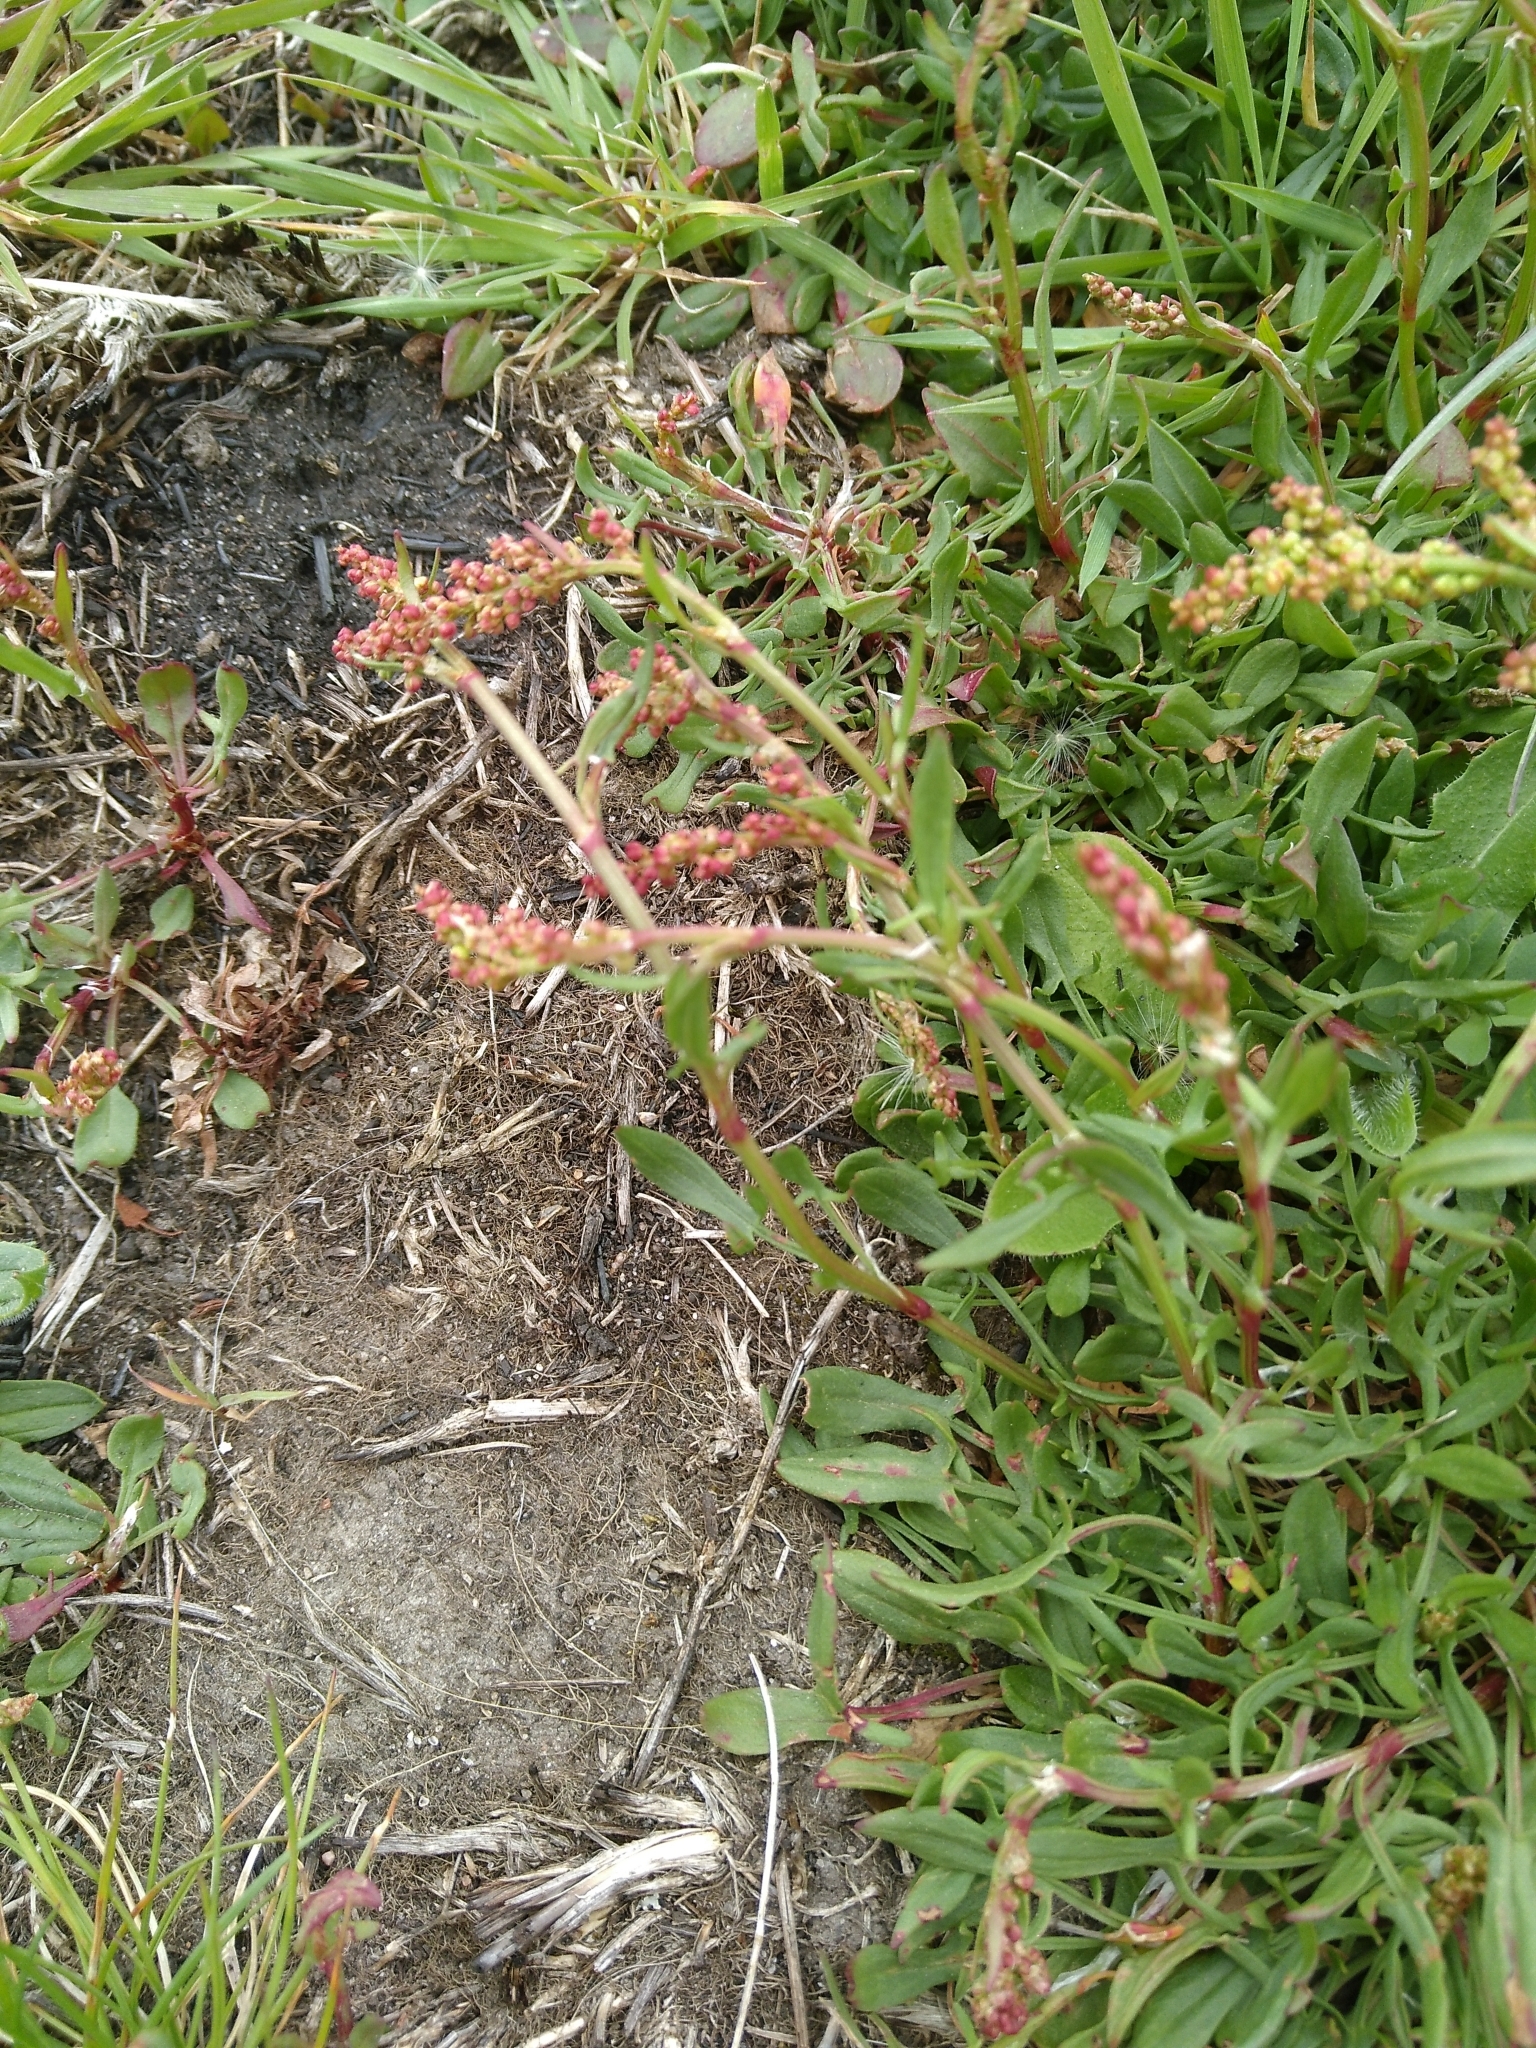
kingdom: Plantae
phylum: Tracheophyta
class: Magnoliopsida
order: Caryophyllales
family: Polygonaceae
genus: Rumex
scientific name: Rumex acetosella
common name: Common sheep sorrel
